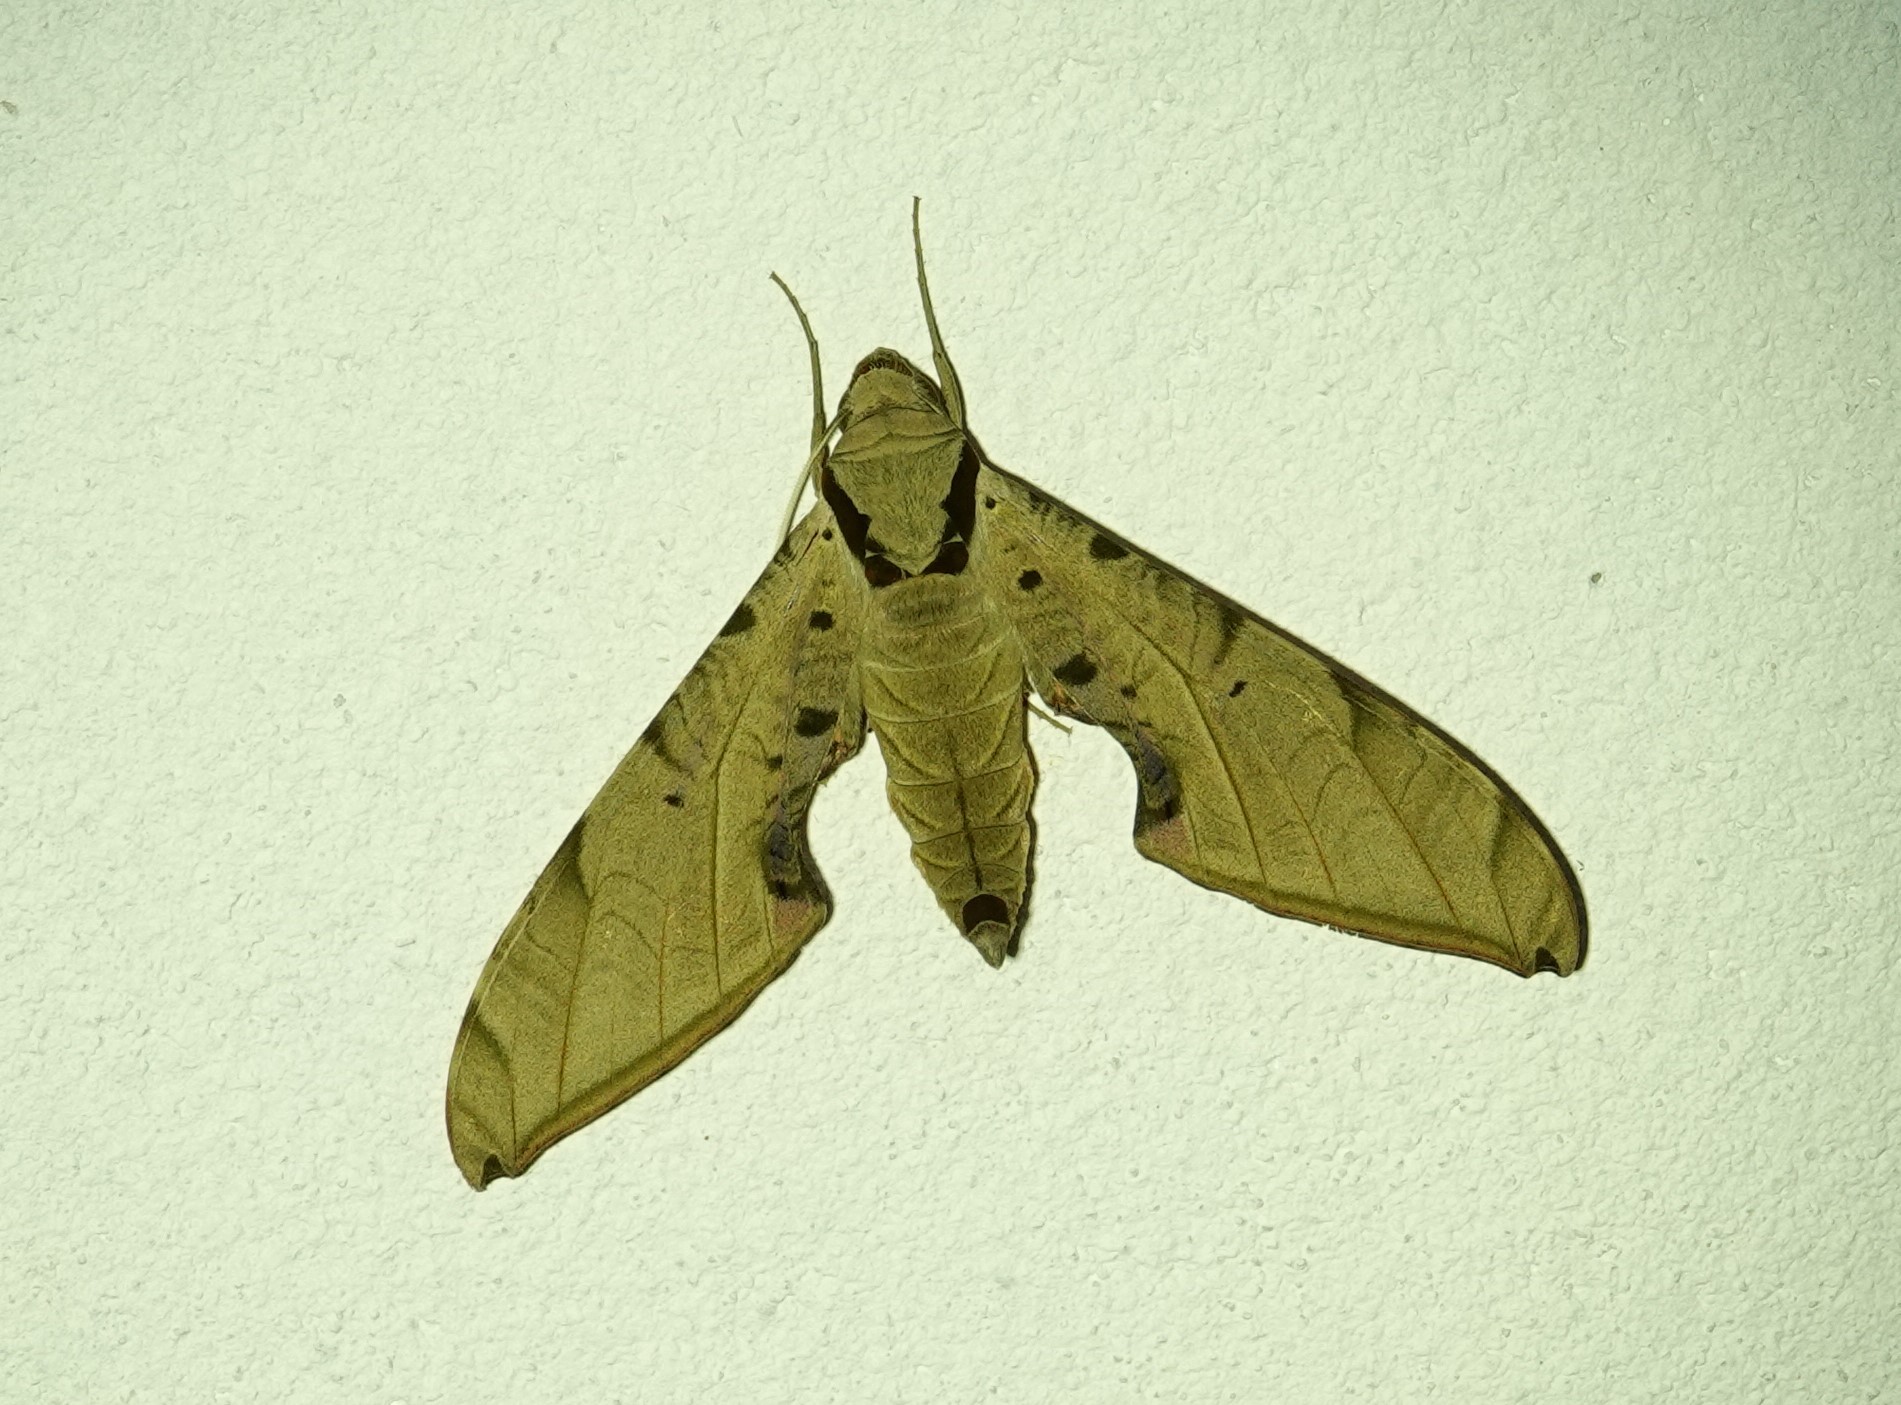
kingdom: Animalia
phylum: Arthropoda
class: Insecta
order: Lepidoptera
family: Sphingidae
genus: Protambulyx
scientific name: Protambulyx strigilis
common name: Streaked sphinx
